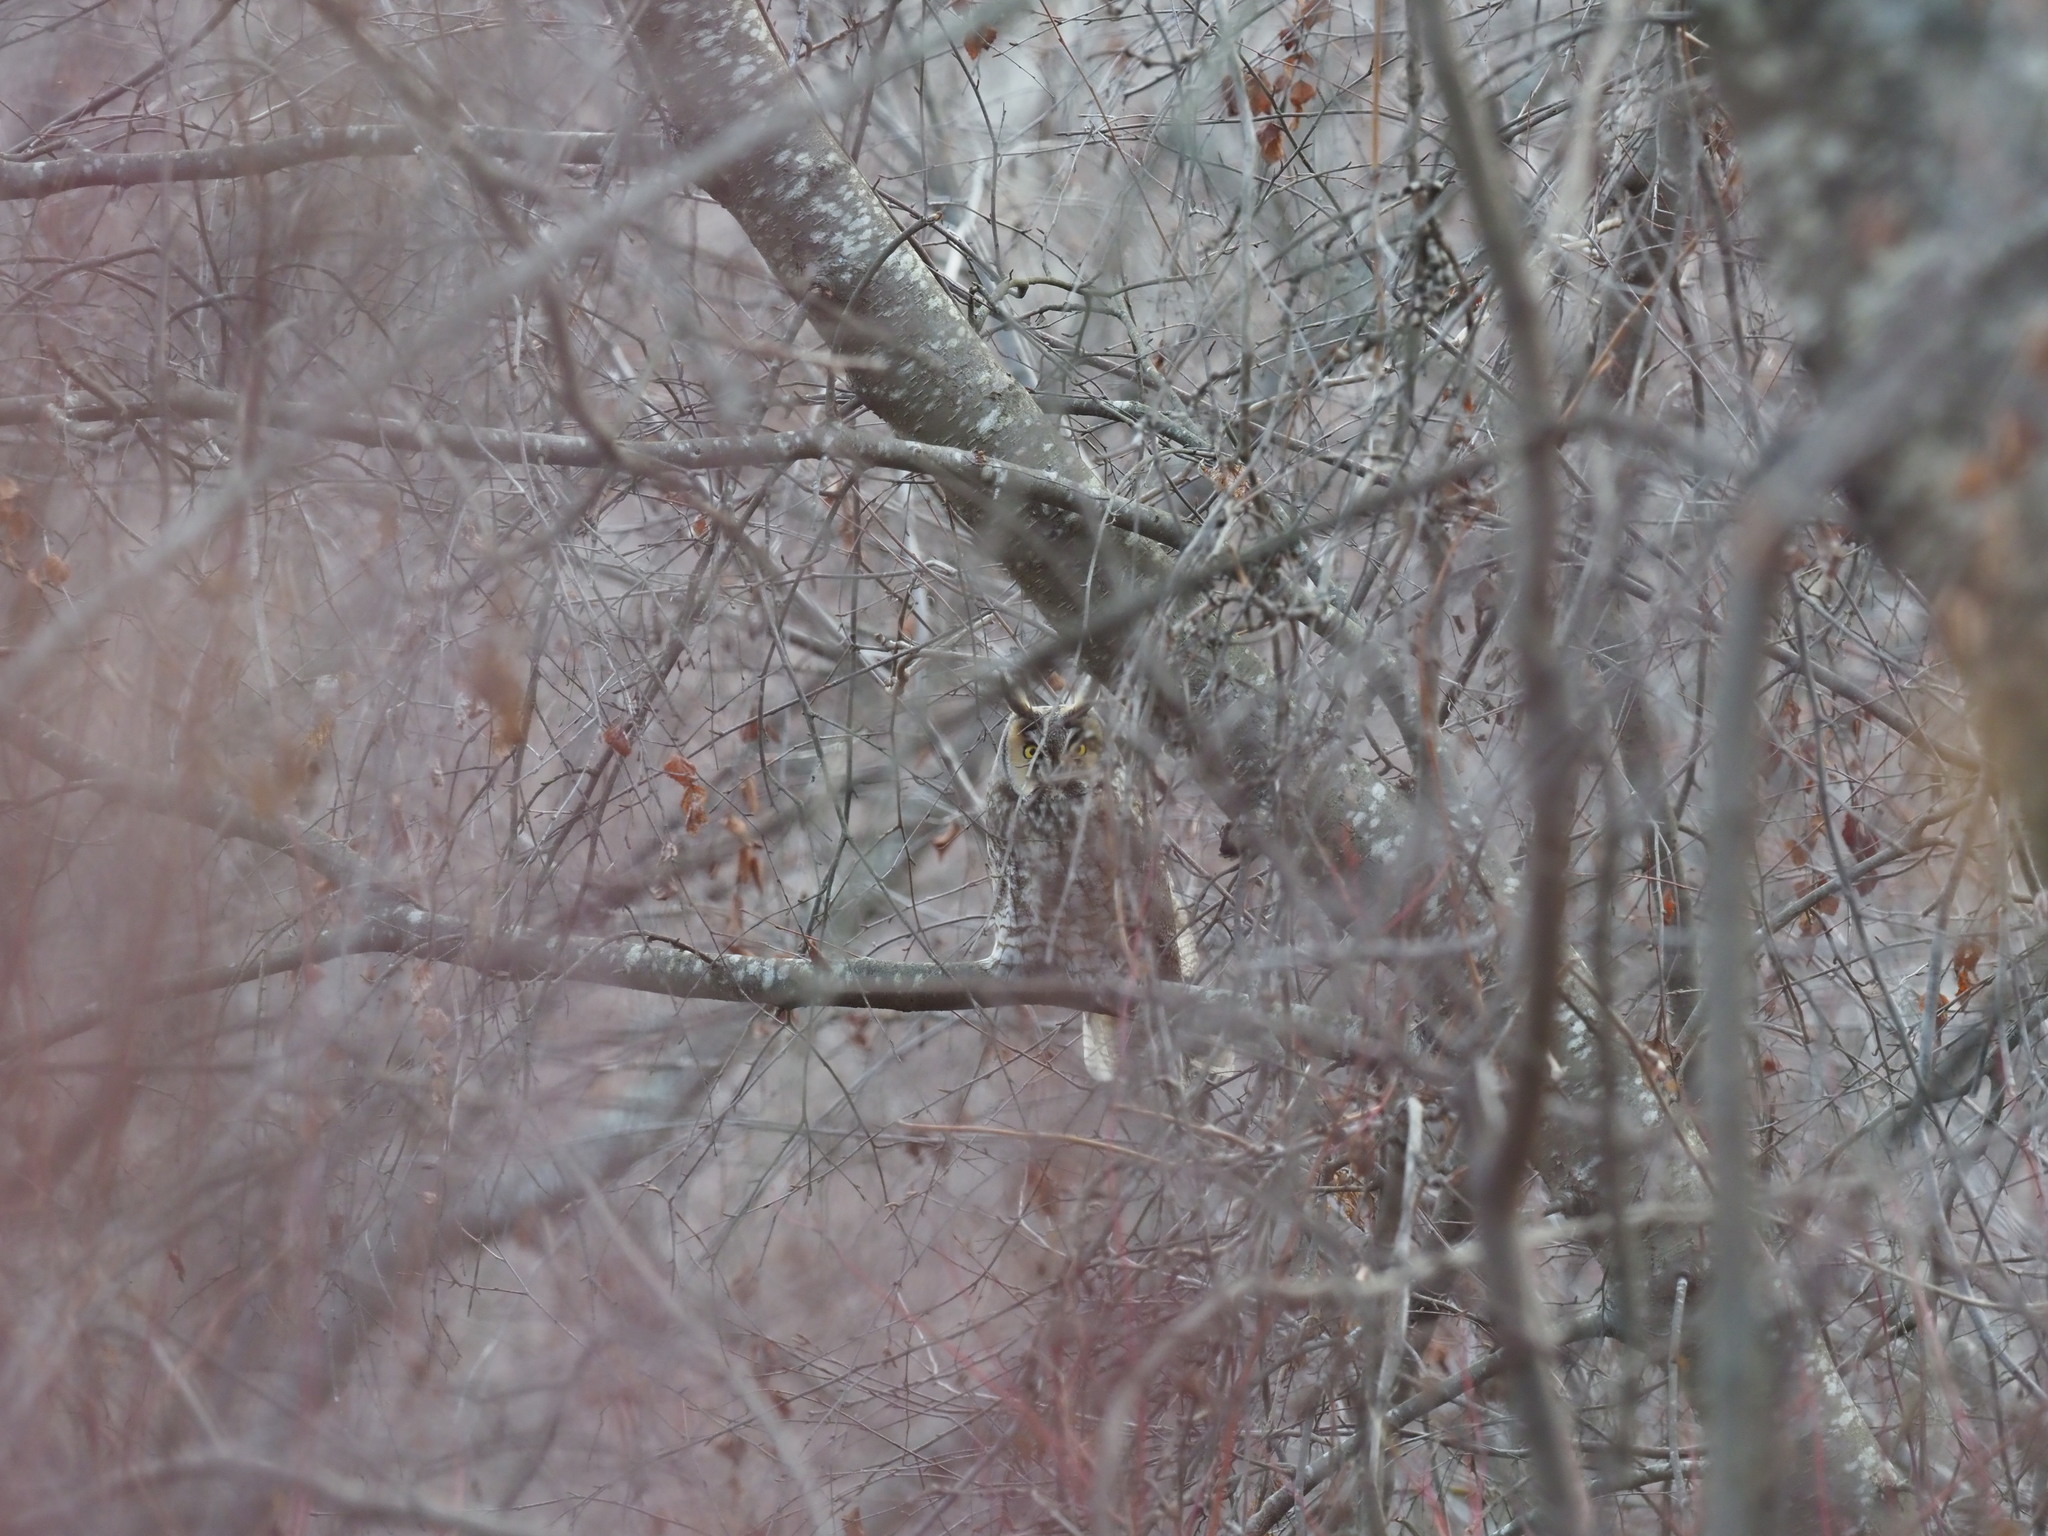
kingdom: Animalia
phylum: Chordata
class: Aves
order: Strigiformes
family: Strigidae
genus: Asio
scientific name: Asio otus
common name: Long-eared owl
